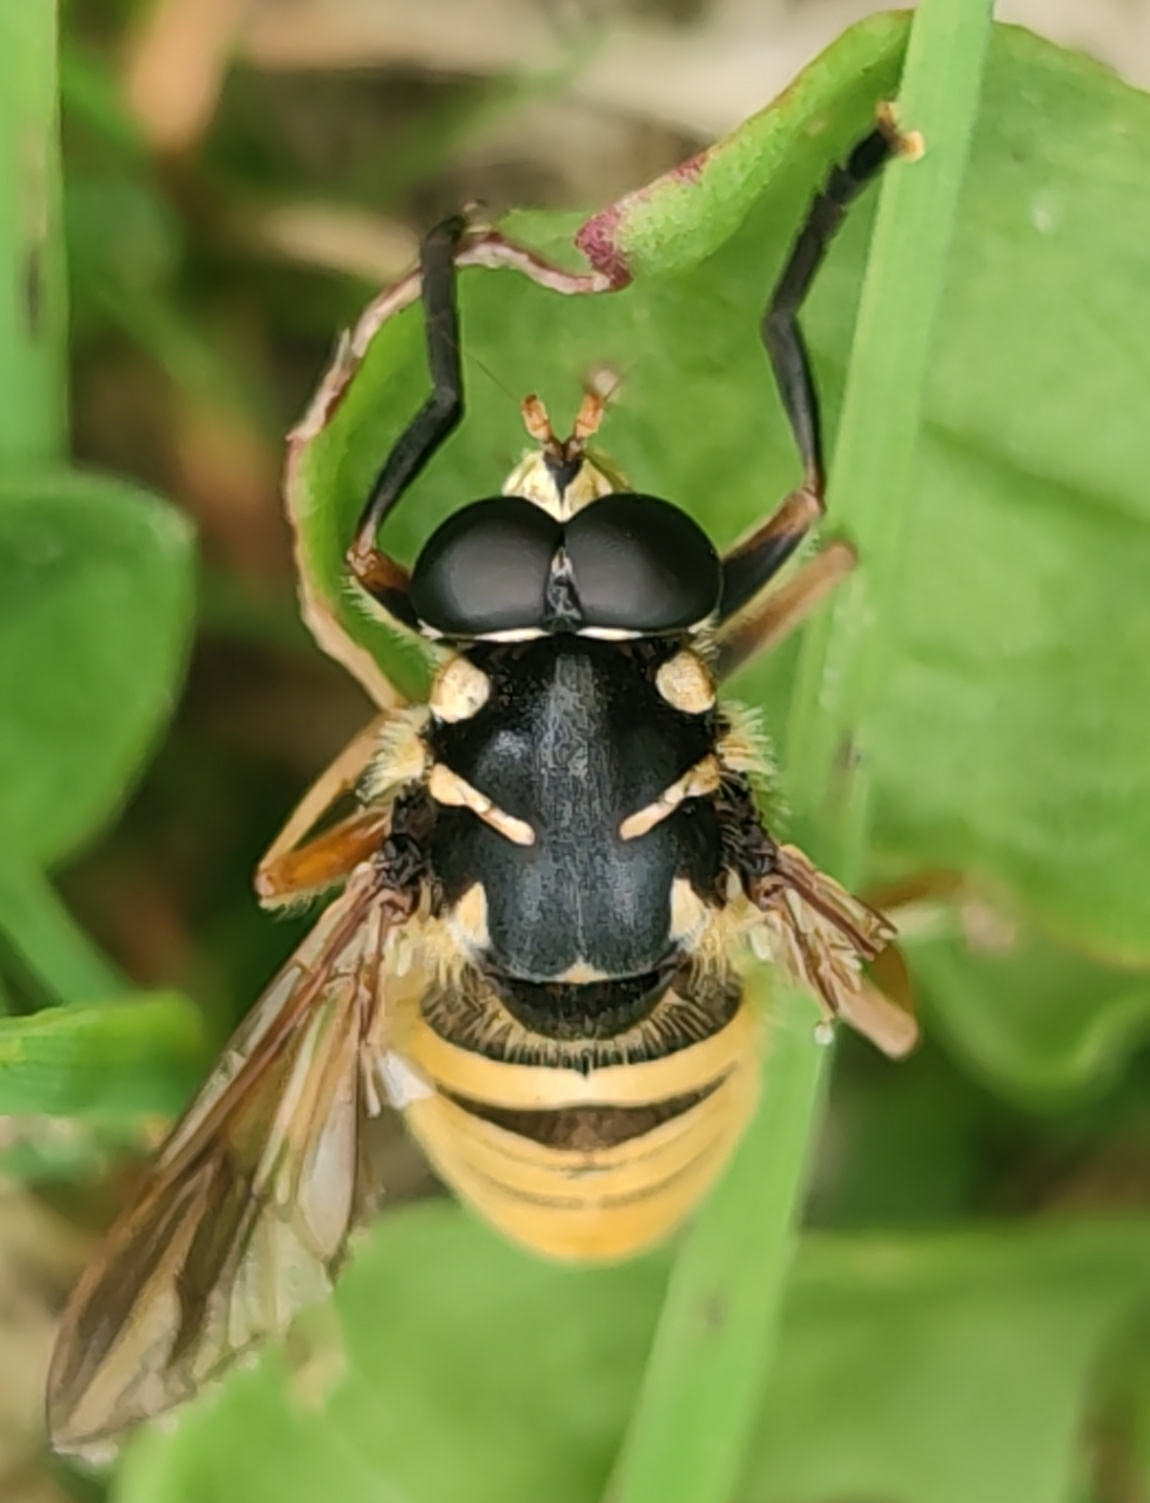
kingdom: Animalia
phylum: Arthropoda
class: Insecta
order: Diptera
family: Syrphidae
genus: Temnostoma
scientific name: Temnostoma vespiforme
